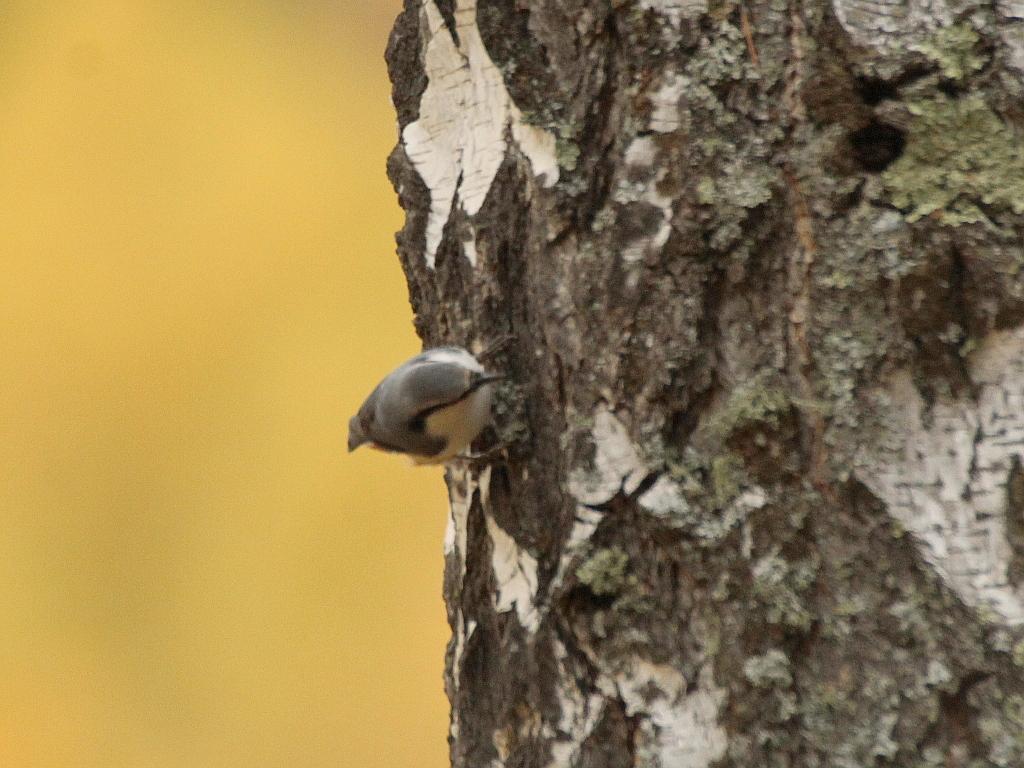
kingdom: Animalia
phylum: Chordata
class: Aves
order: Passeriformes
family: Sittidae
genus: Sitta
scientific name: Sitta europaea
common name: Eurasian nuthatch
